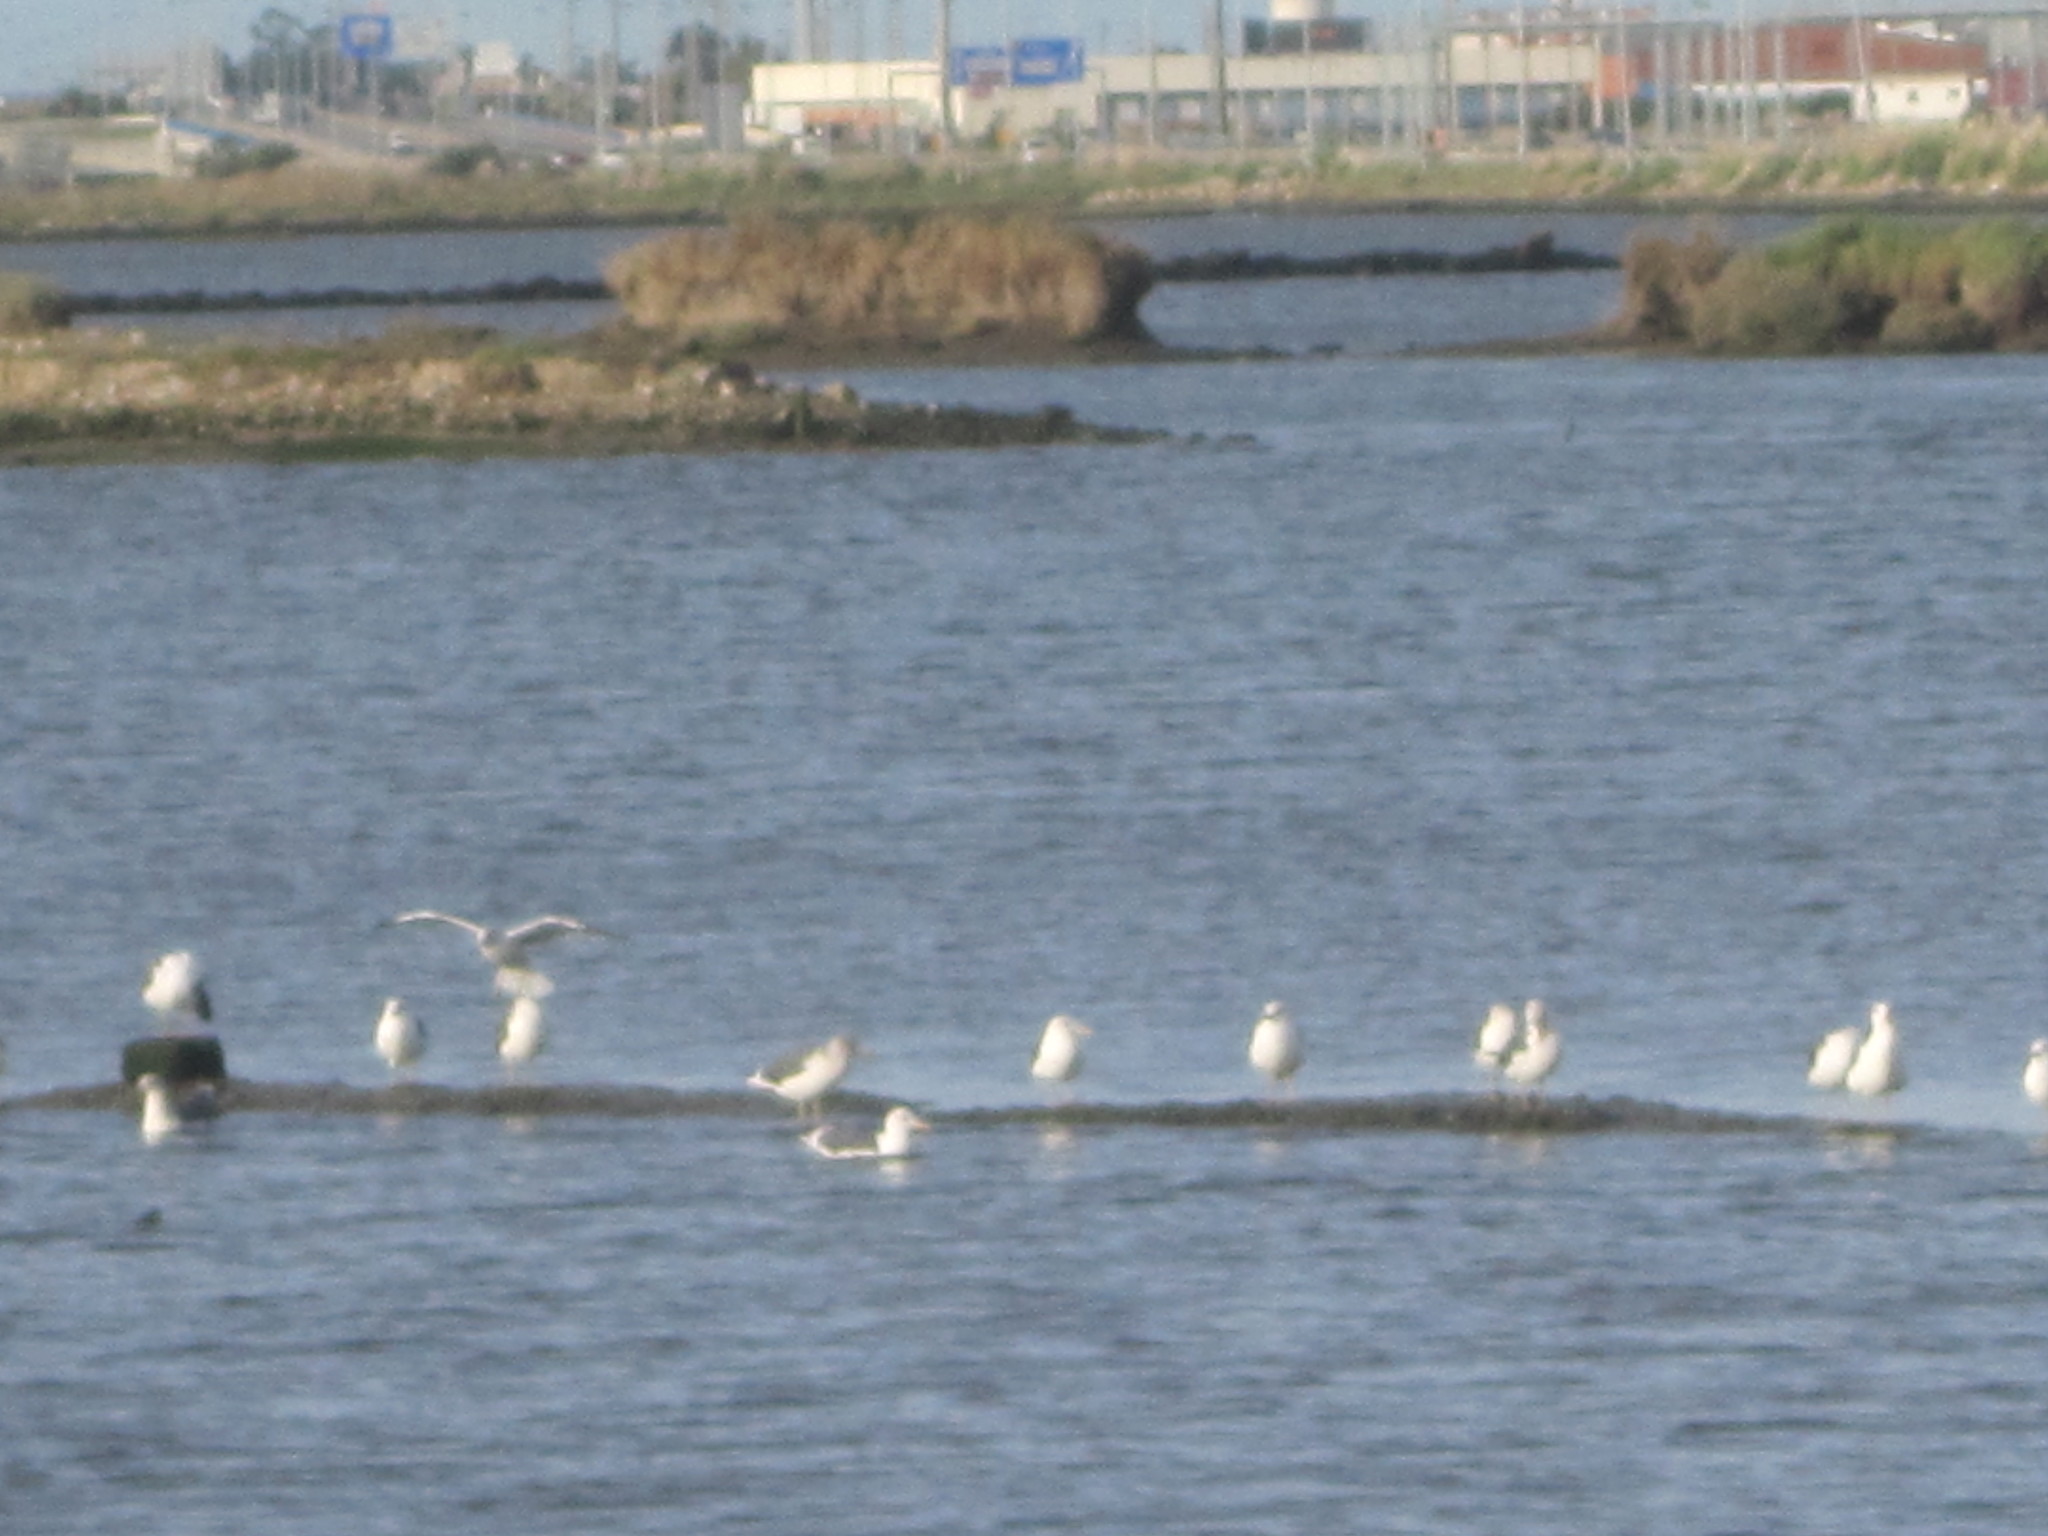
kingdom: Animalia
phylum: Chordata
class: Aves
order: Charadriiformes
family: Laridae
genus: Larus
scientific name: Larus fuscus
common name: Lesser black-backed gull
